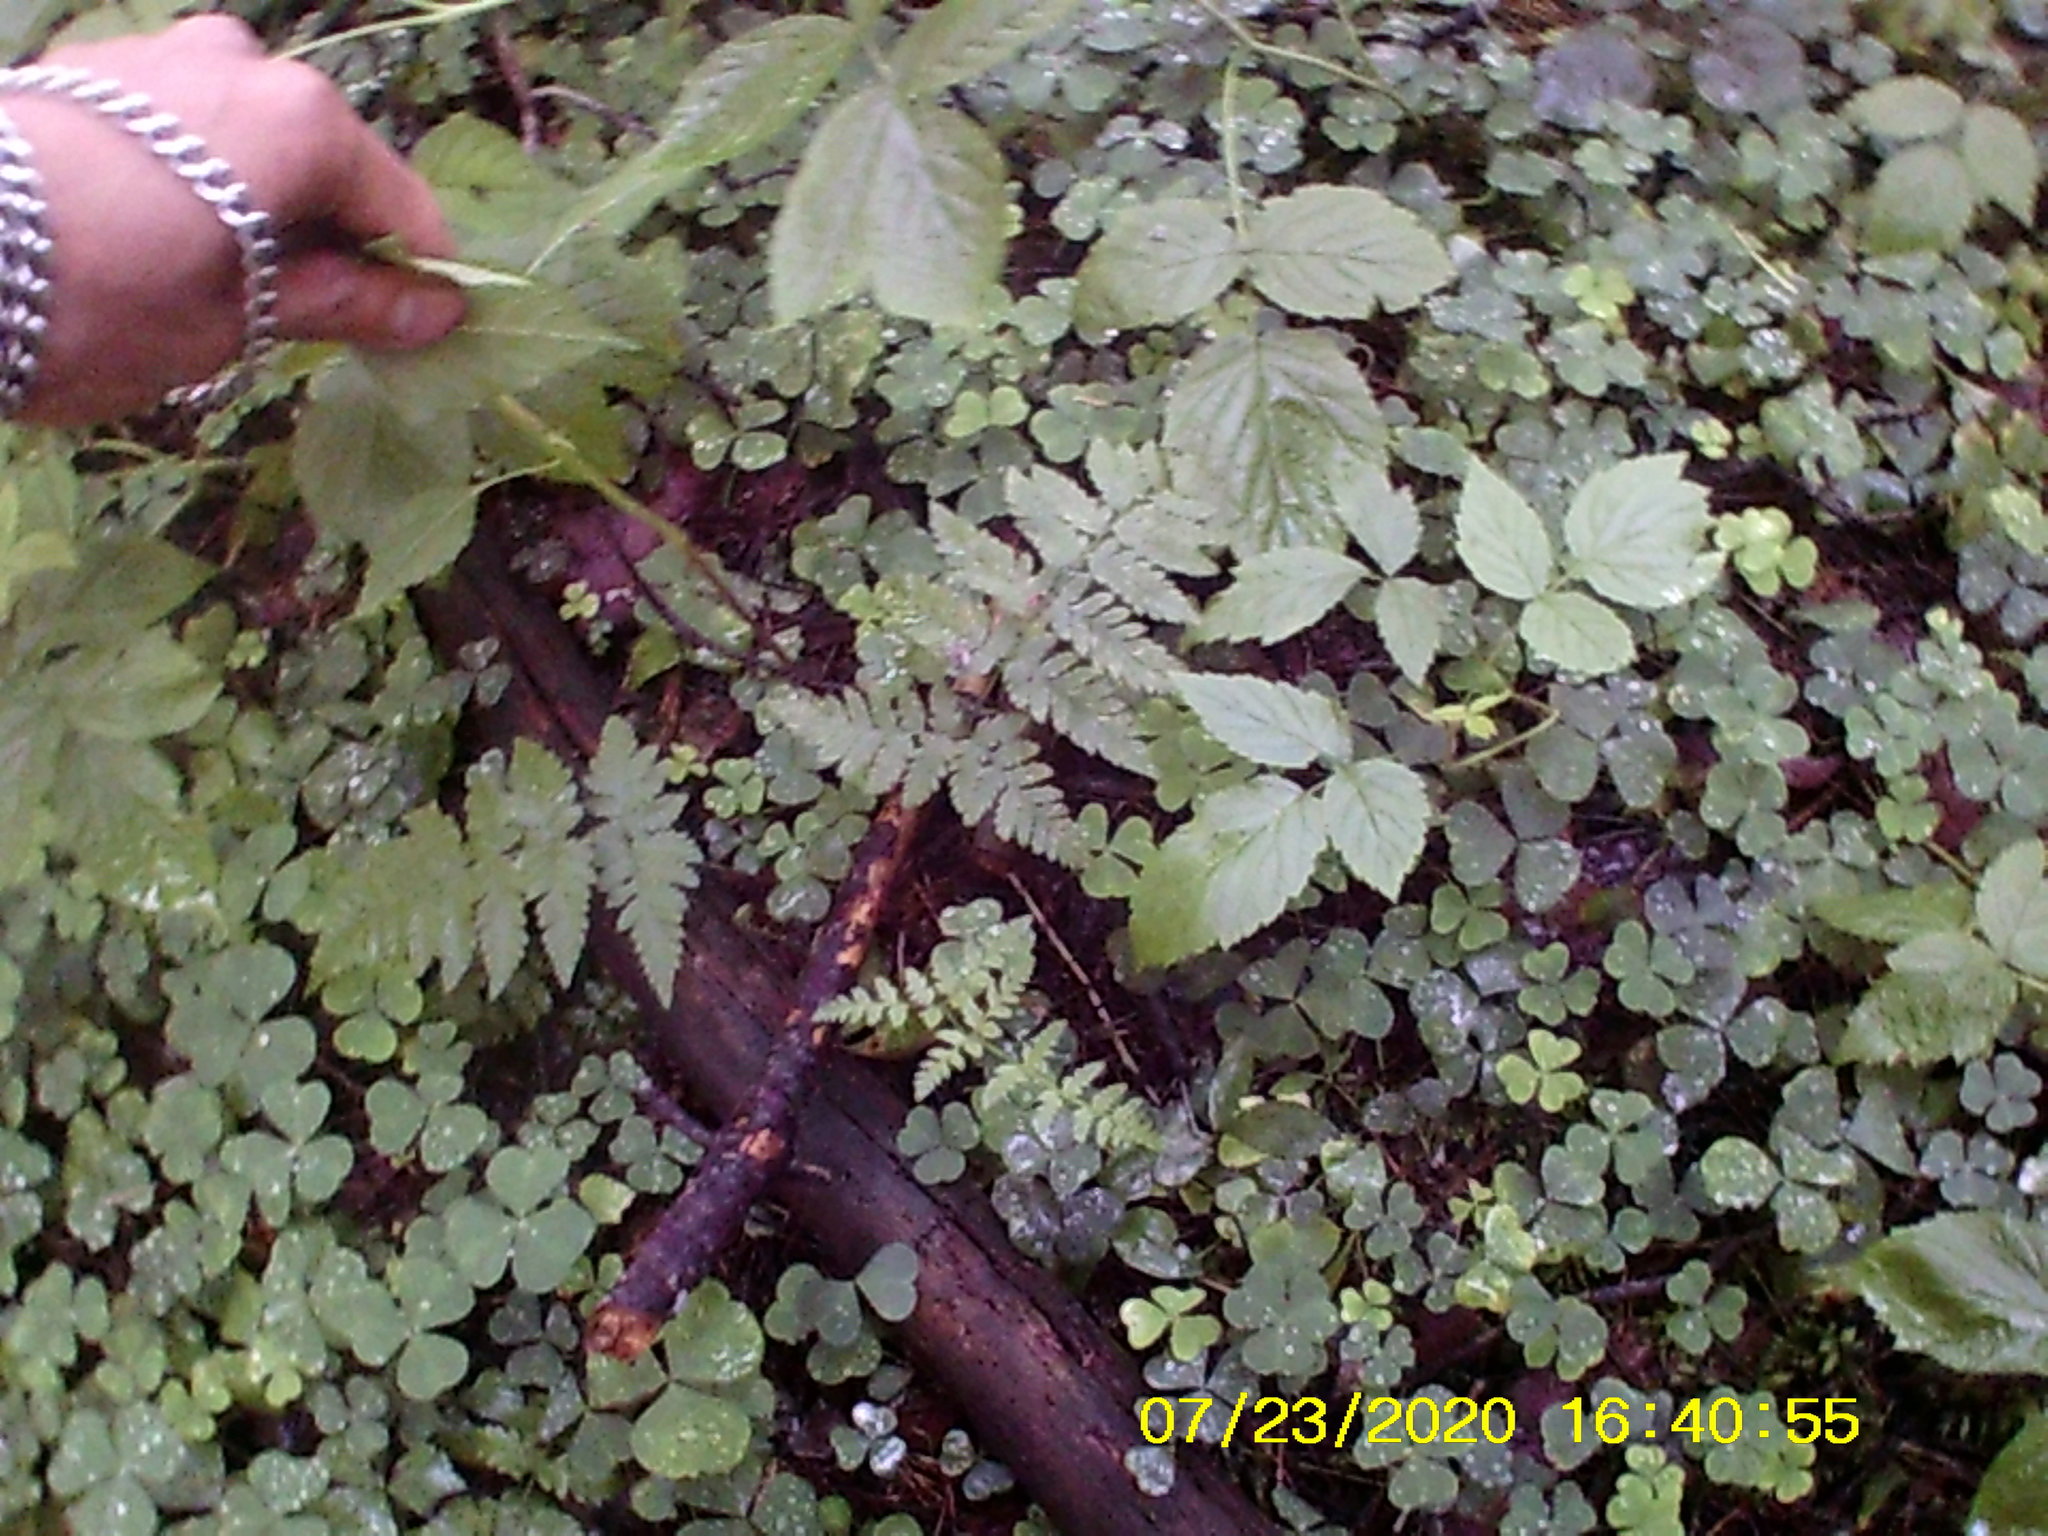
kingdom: Plantae
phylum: Tracheophyta
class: Polypodiopsida
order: Polypodiales
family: Dryopteridaceae
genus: Dryopteris
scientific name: Dryopteris carthusiana
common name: Narrow buckler-fern
